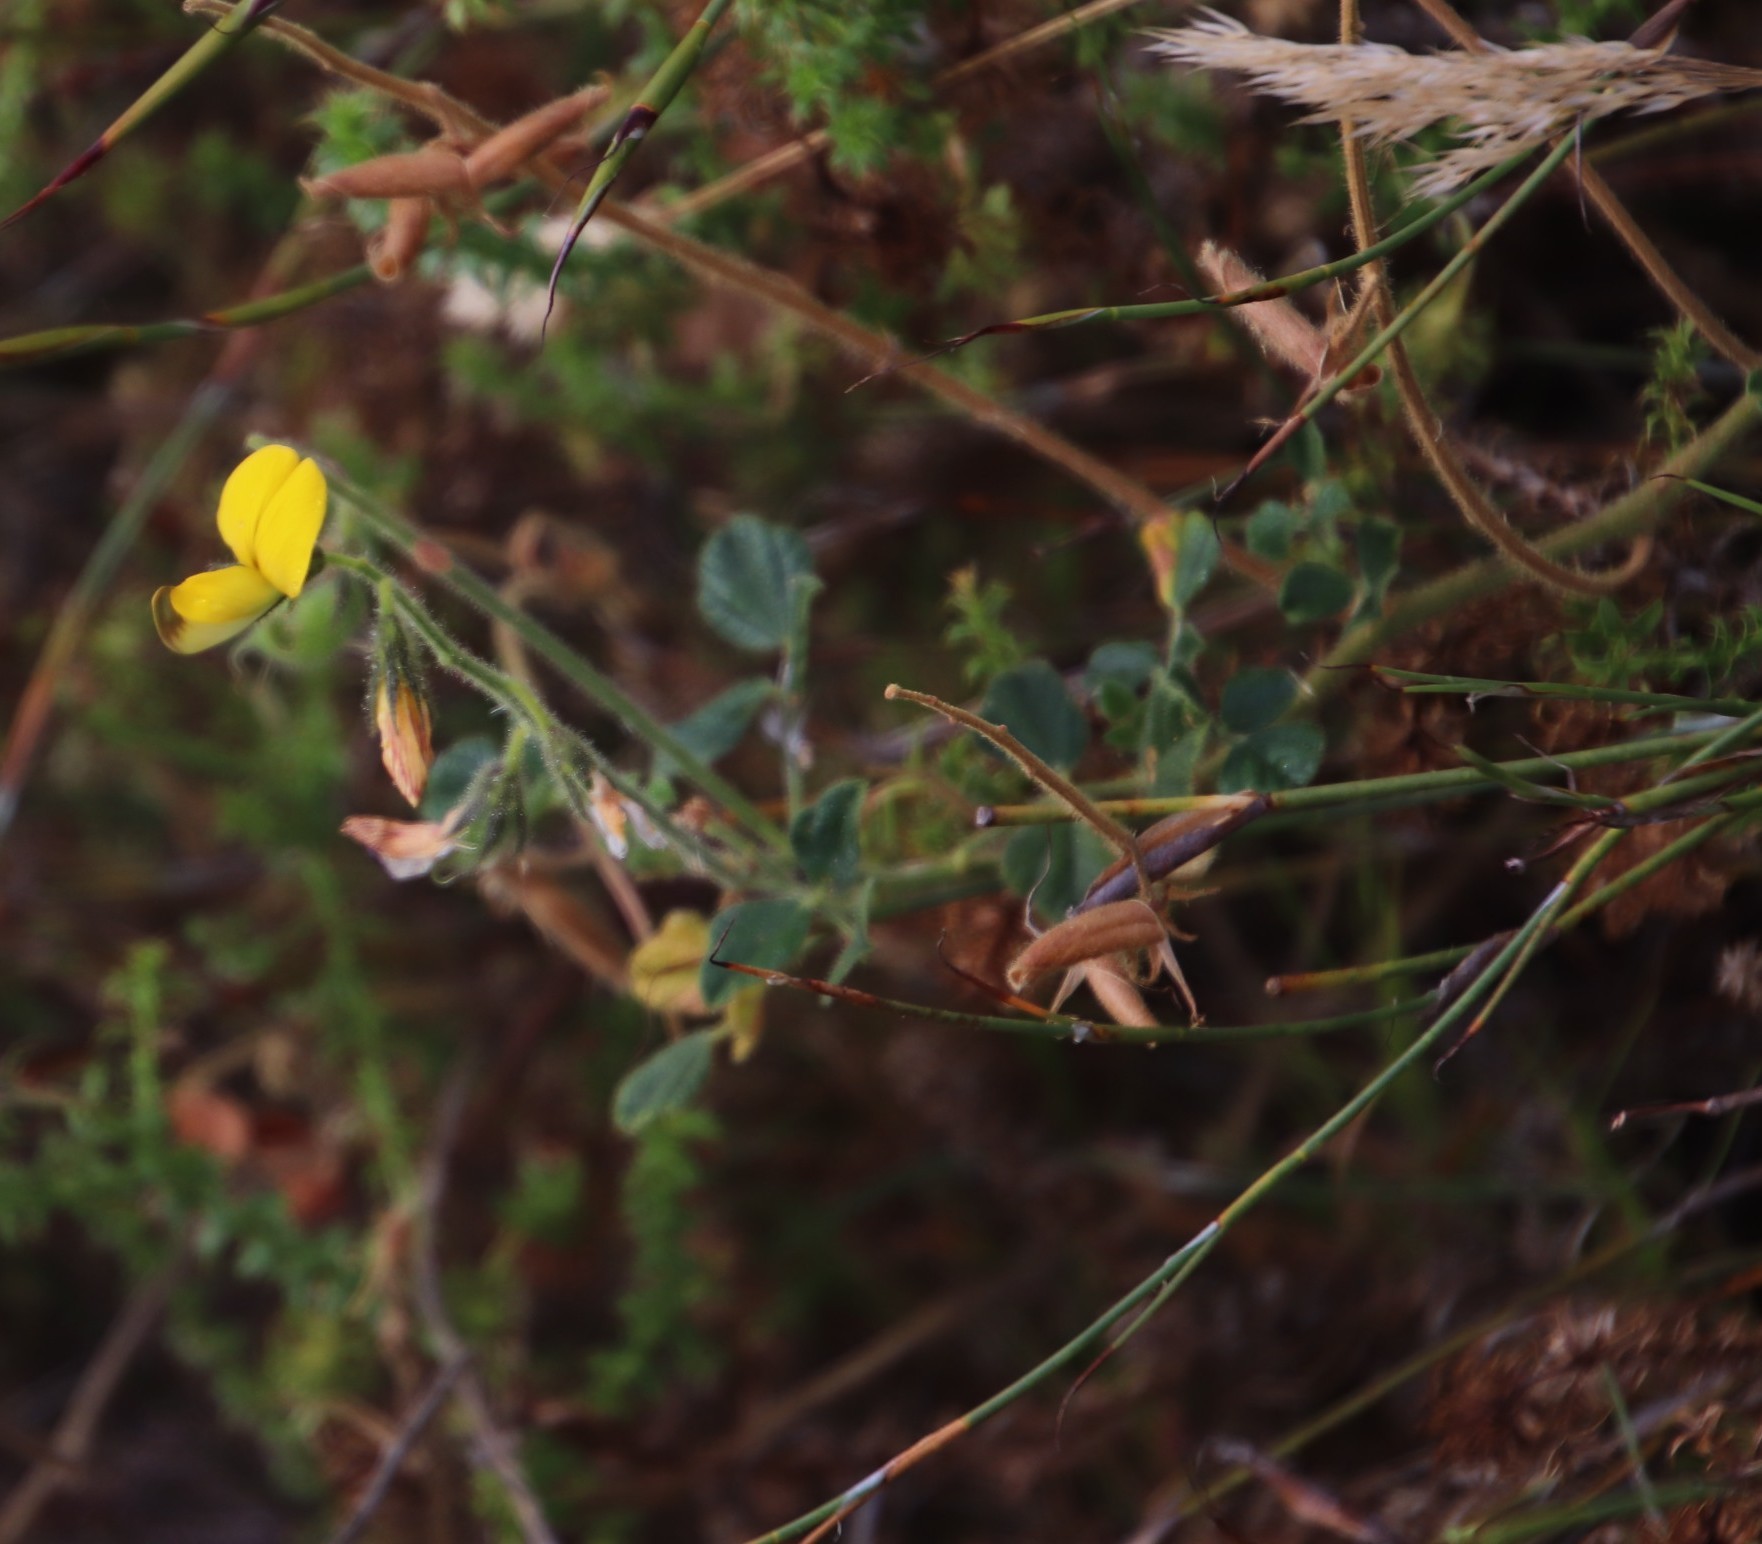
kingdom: Plantae
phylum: Tracheophyta
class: Magnoliopsida
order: Fabales
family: Fabaceae
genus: Bolusafra
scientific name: Bolusafra bituminosa
